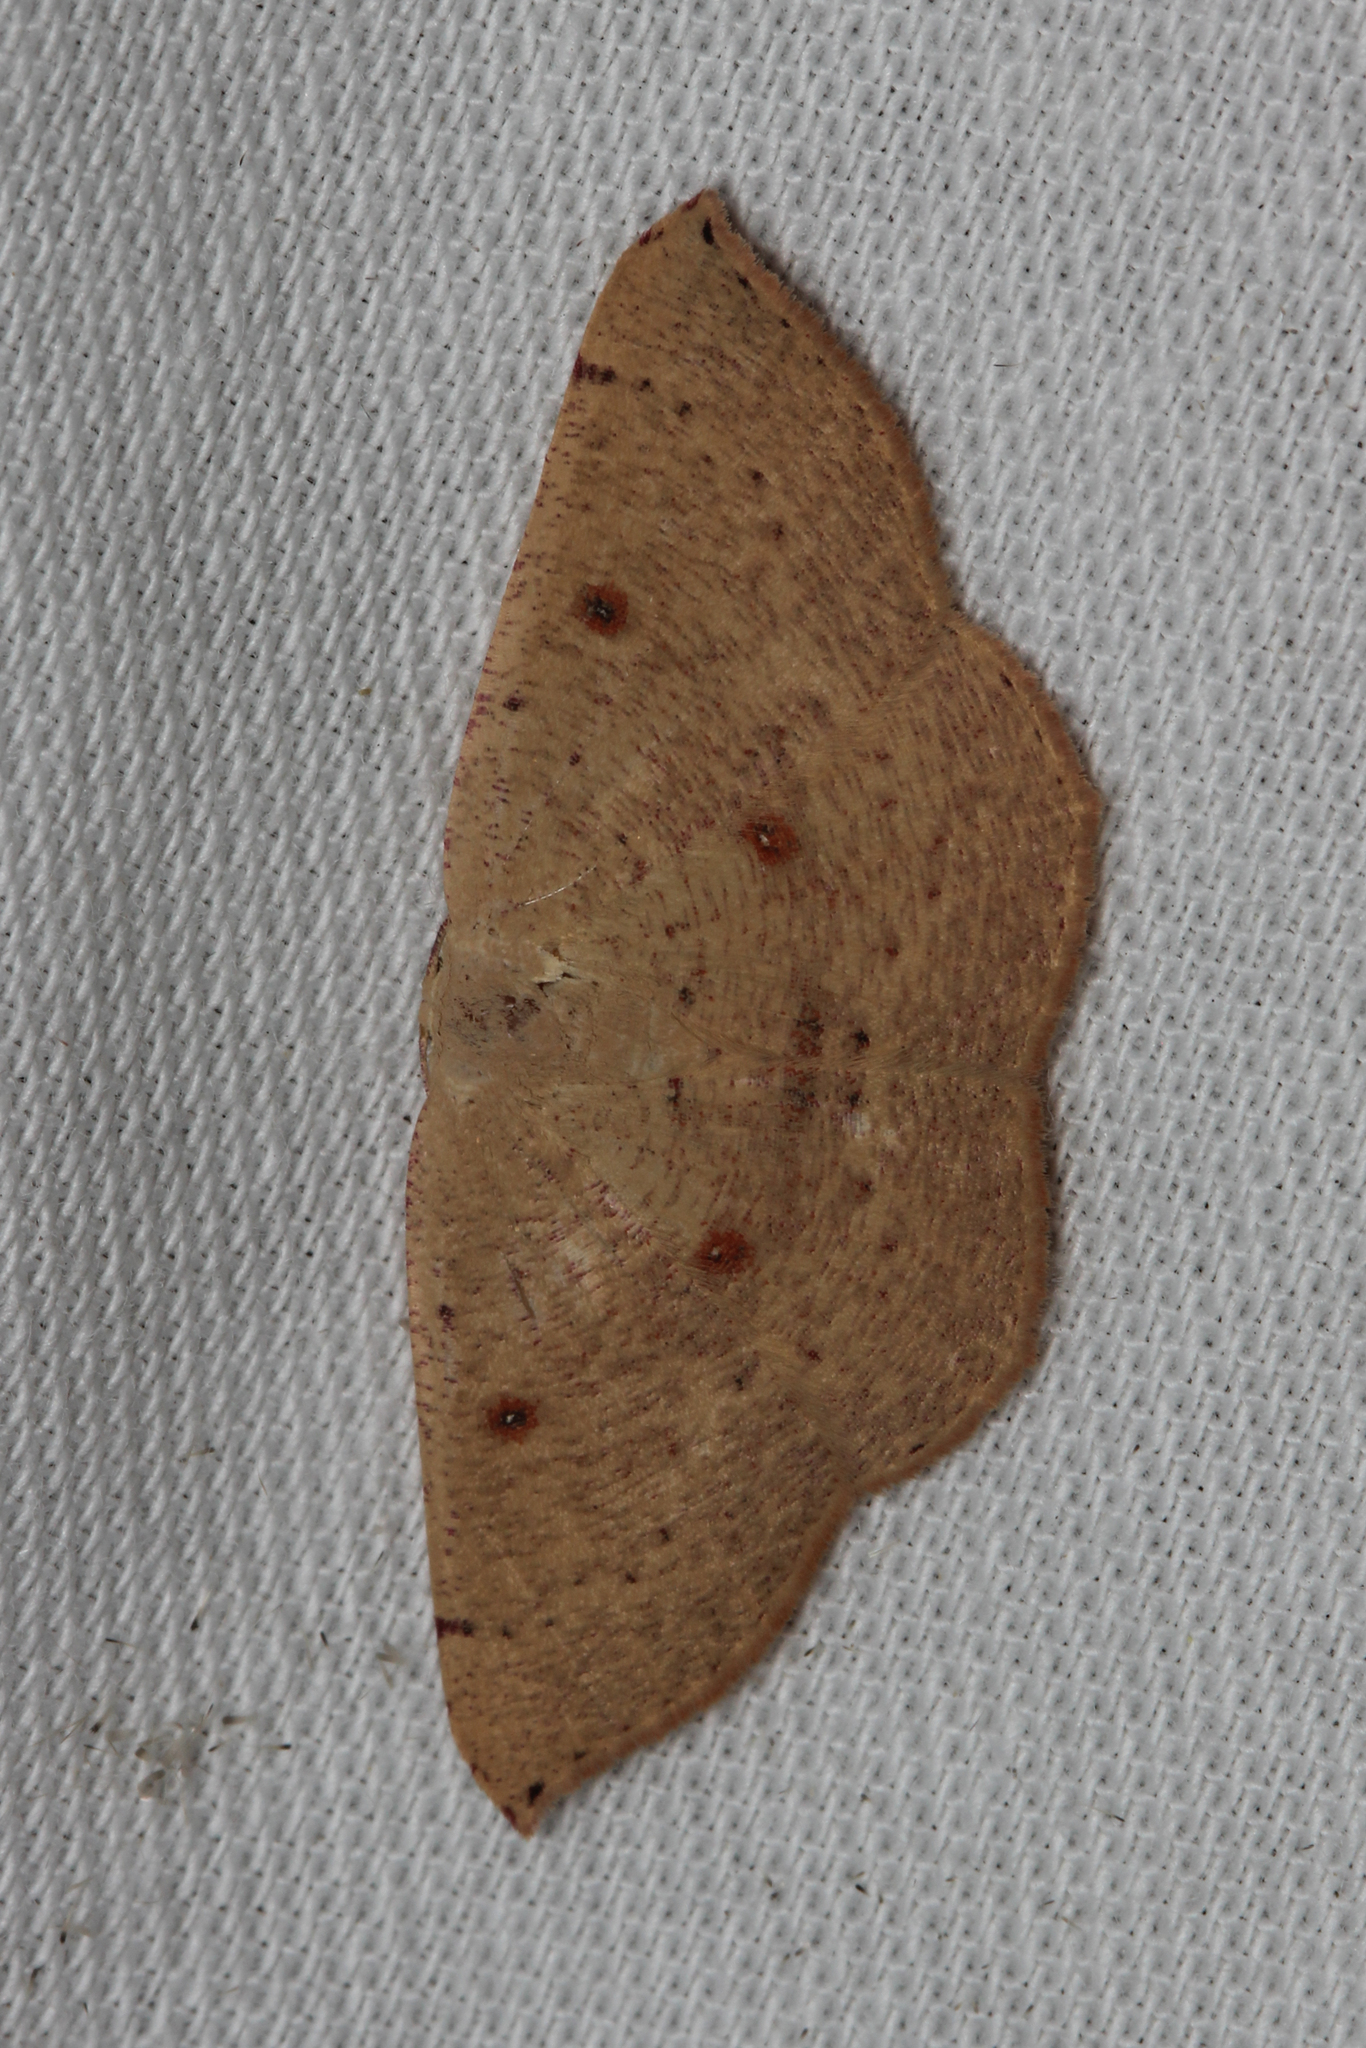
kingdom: Animalia
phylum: Arthropoda
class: Insecta
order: Lepidoptera
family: Geometridae
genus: Cyclophora
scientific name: Cyclophora puppillaria
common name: Blair's mocha
